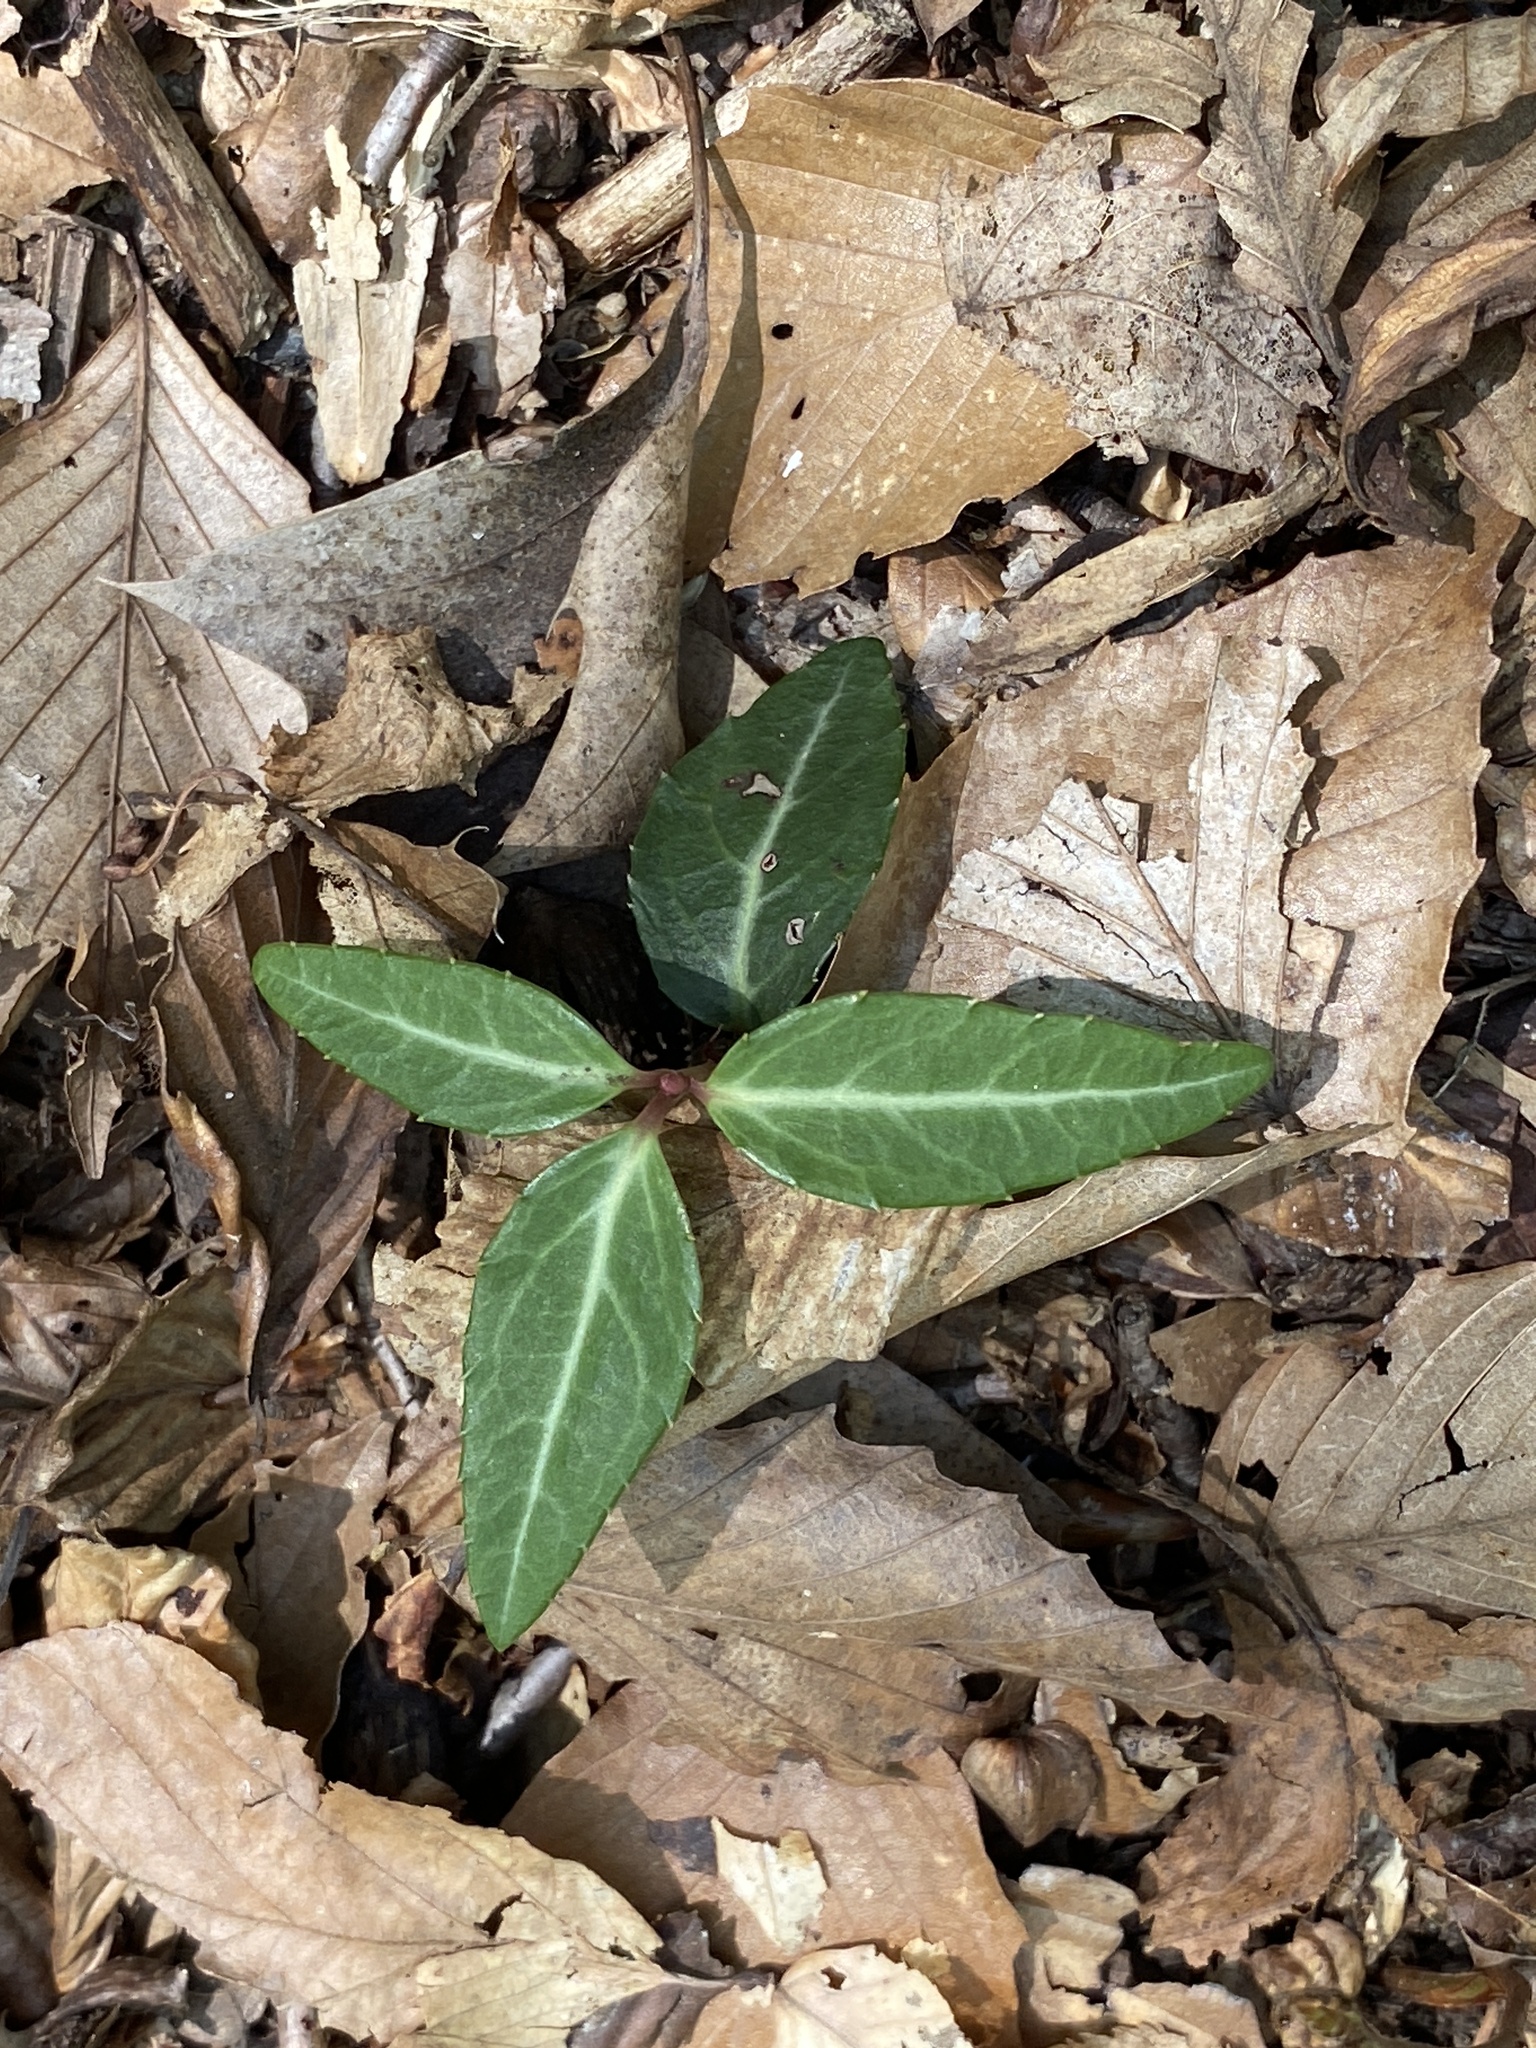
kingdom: Plantae
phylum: Tracheophyta
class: Magnoliopsida
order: Ericales
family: Ericaceae
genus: Chimaphila
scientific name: Chimaphila maculata
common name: Spotted pipsissewa
